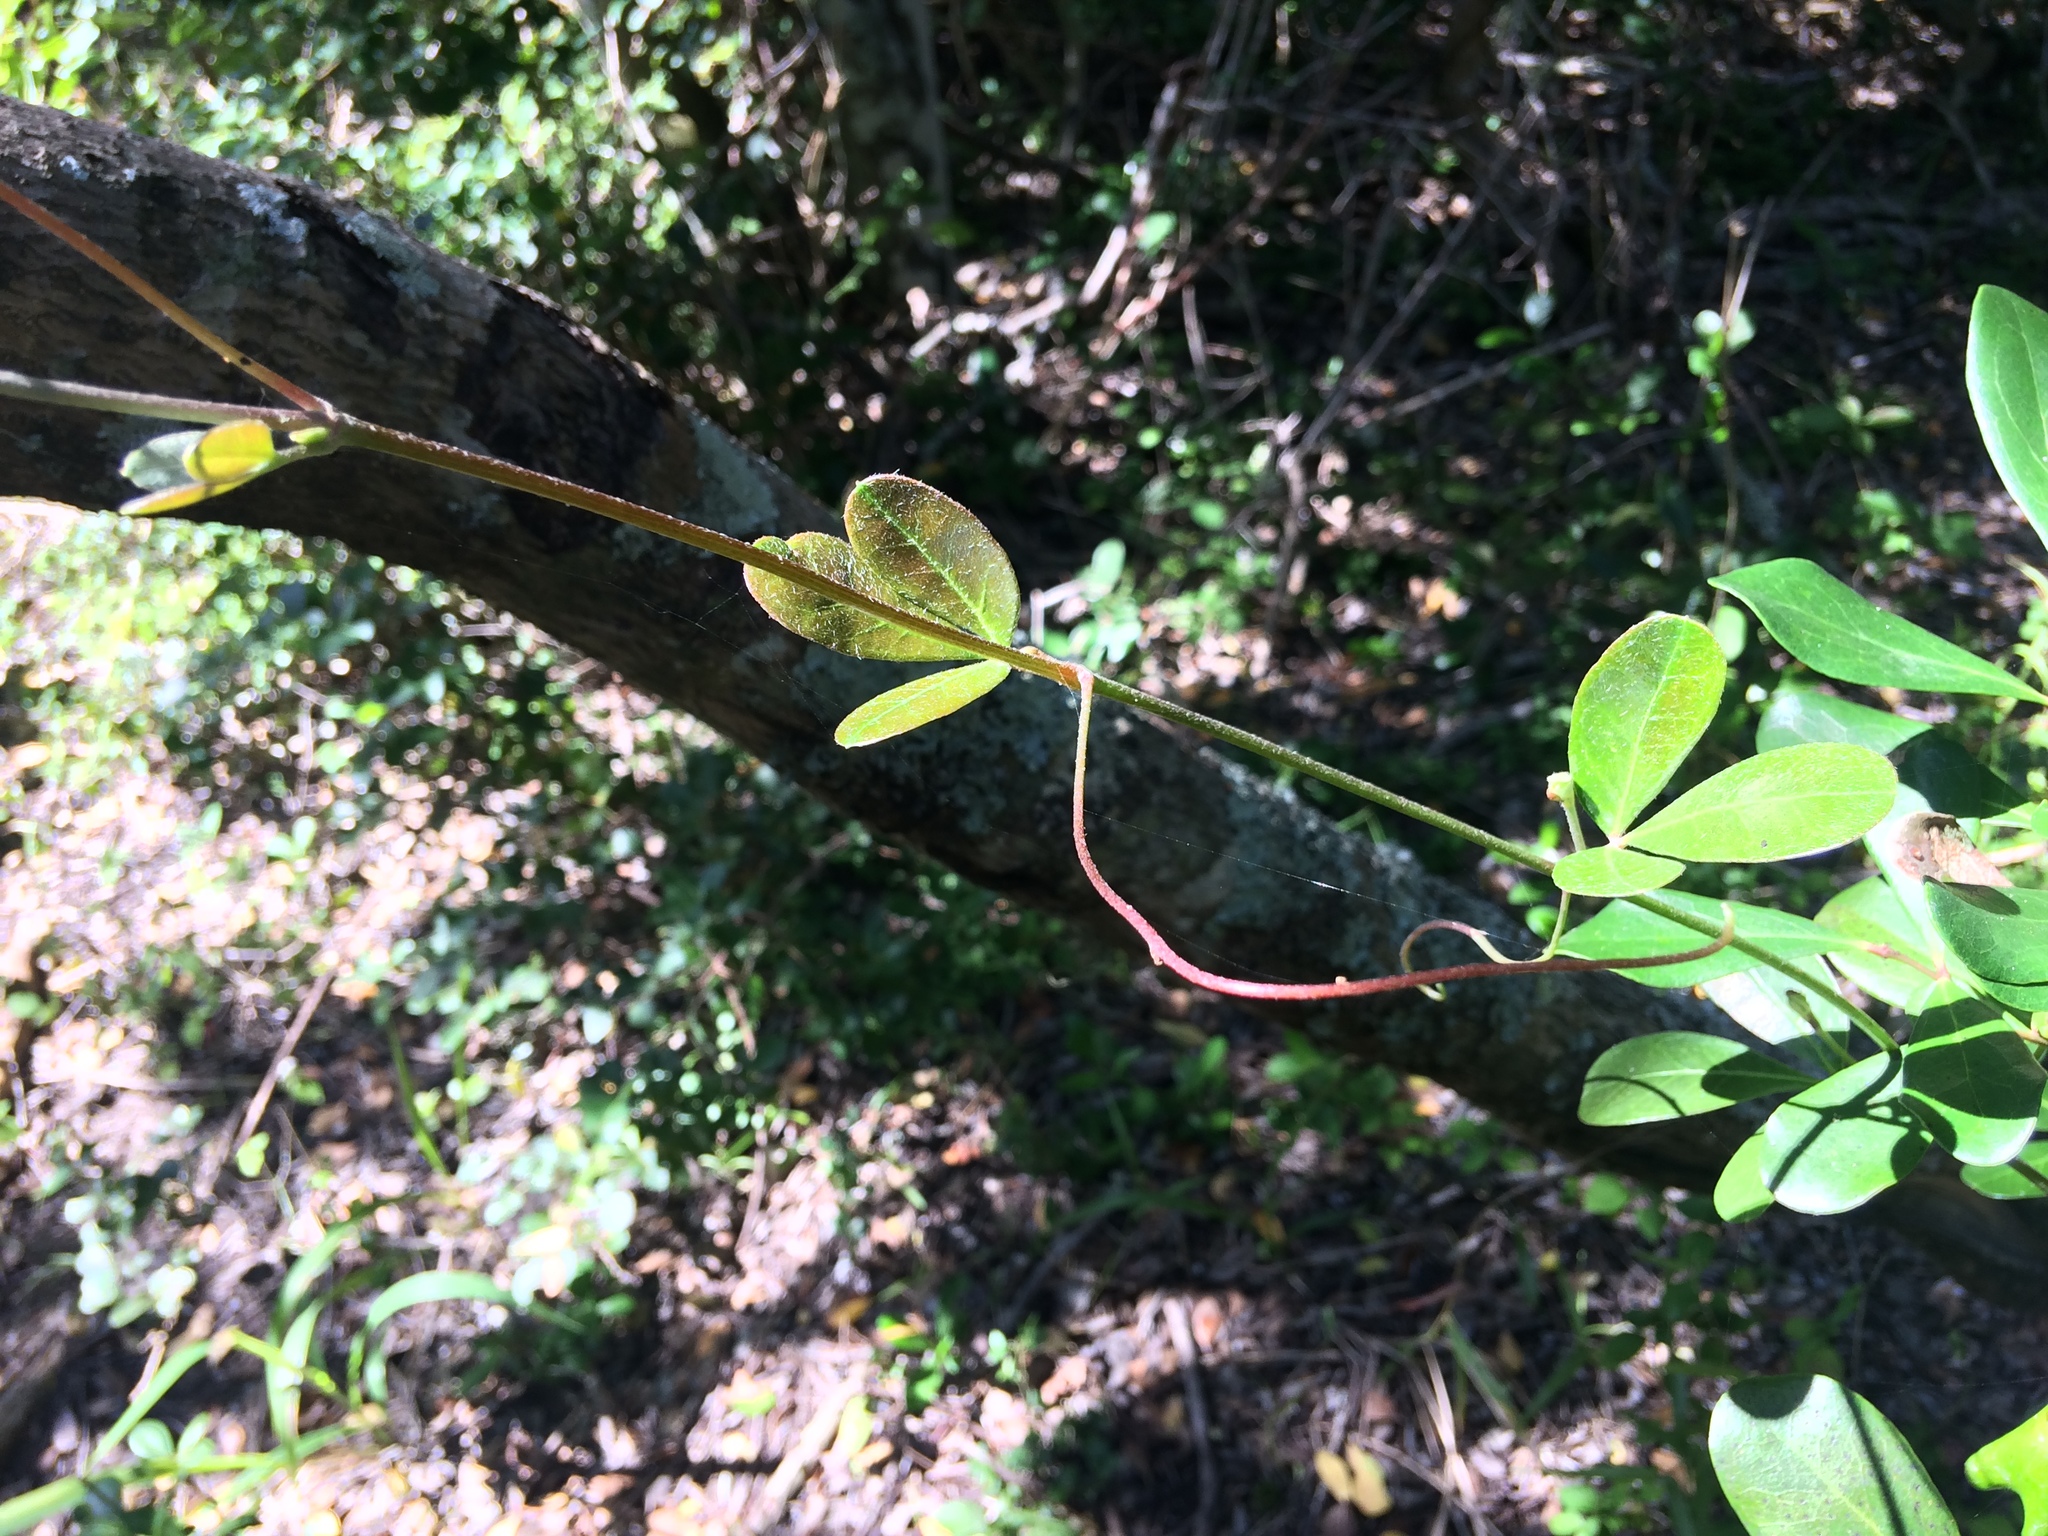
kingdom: Plantae
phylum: Tracheophyta
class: Magnoliopsida
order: Vitales
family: Vitaceae
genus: Rhoicissus
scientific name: Rhoicissus digitata
